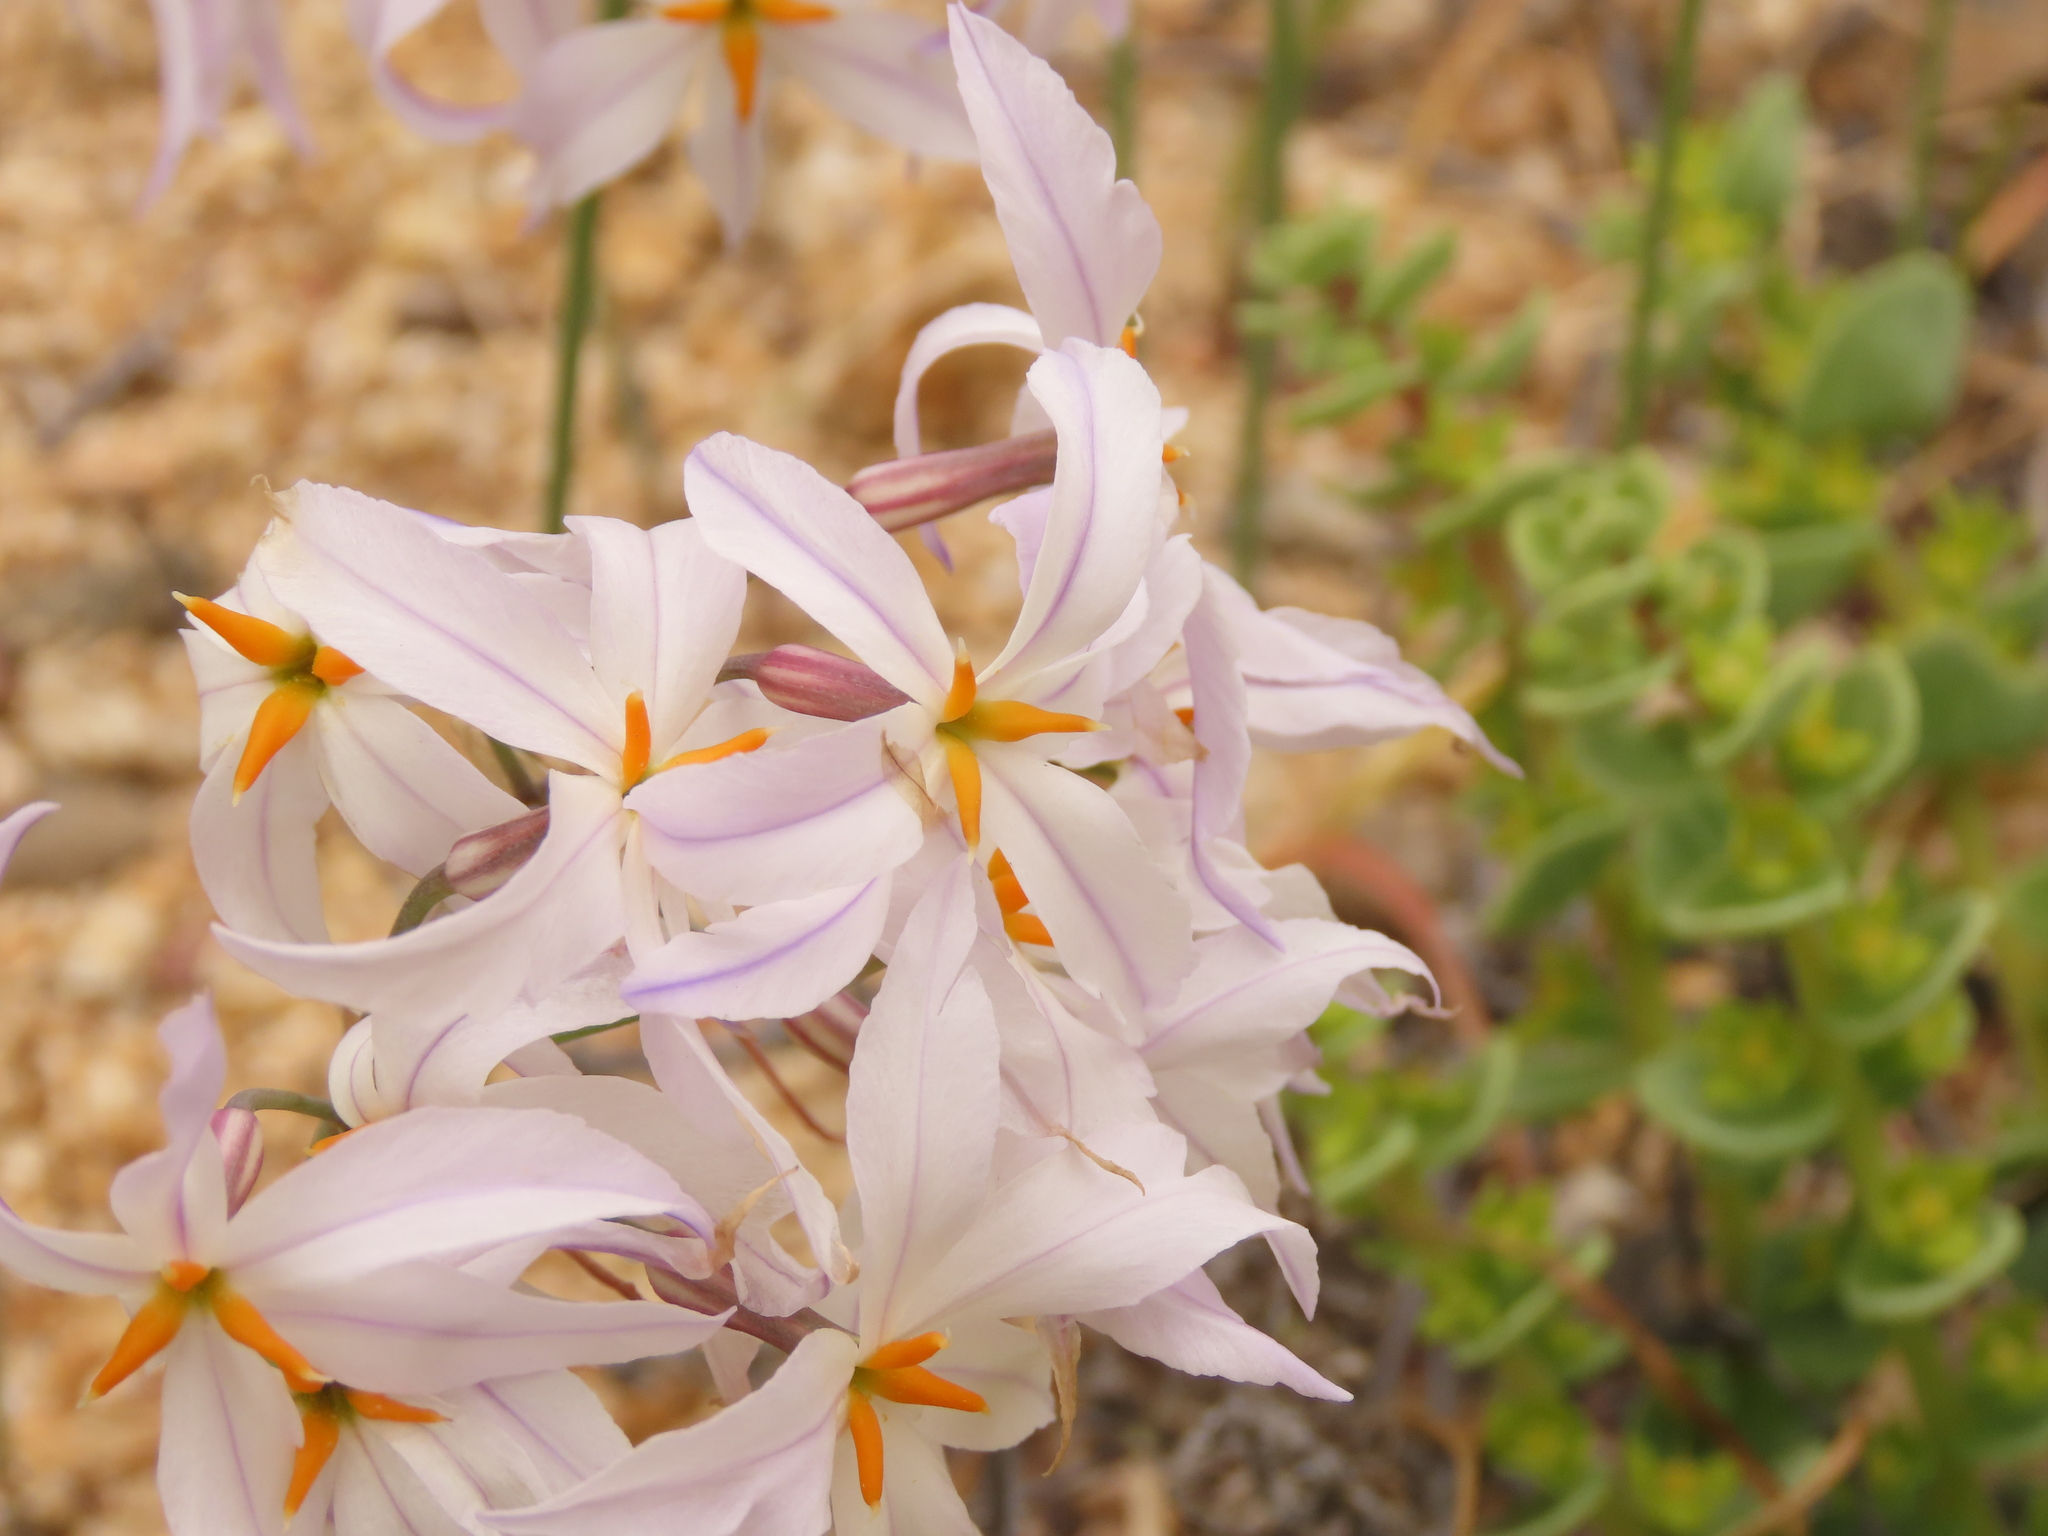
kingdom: Plantae
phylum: Tracheophyta
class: Liliopsida
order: Asparagales
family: Amaryllidaceae
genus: Leucocoryne
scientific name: Leucocoryne appendiculata
